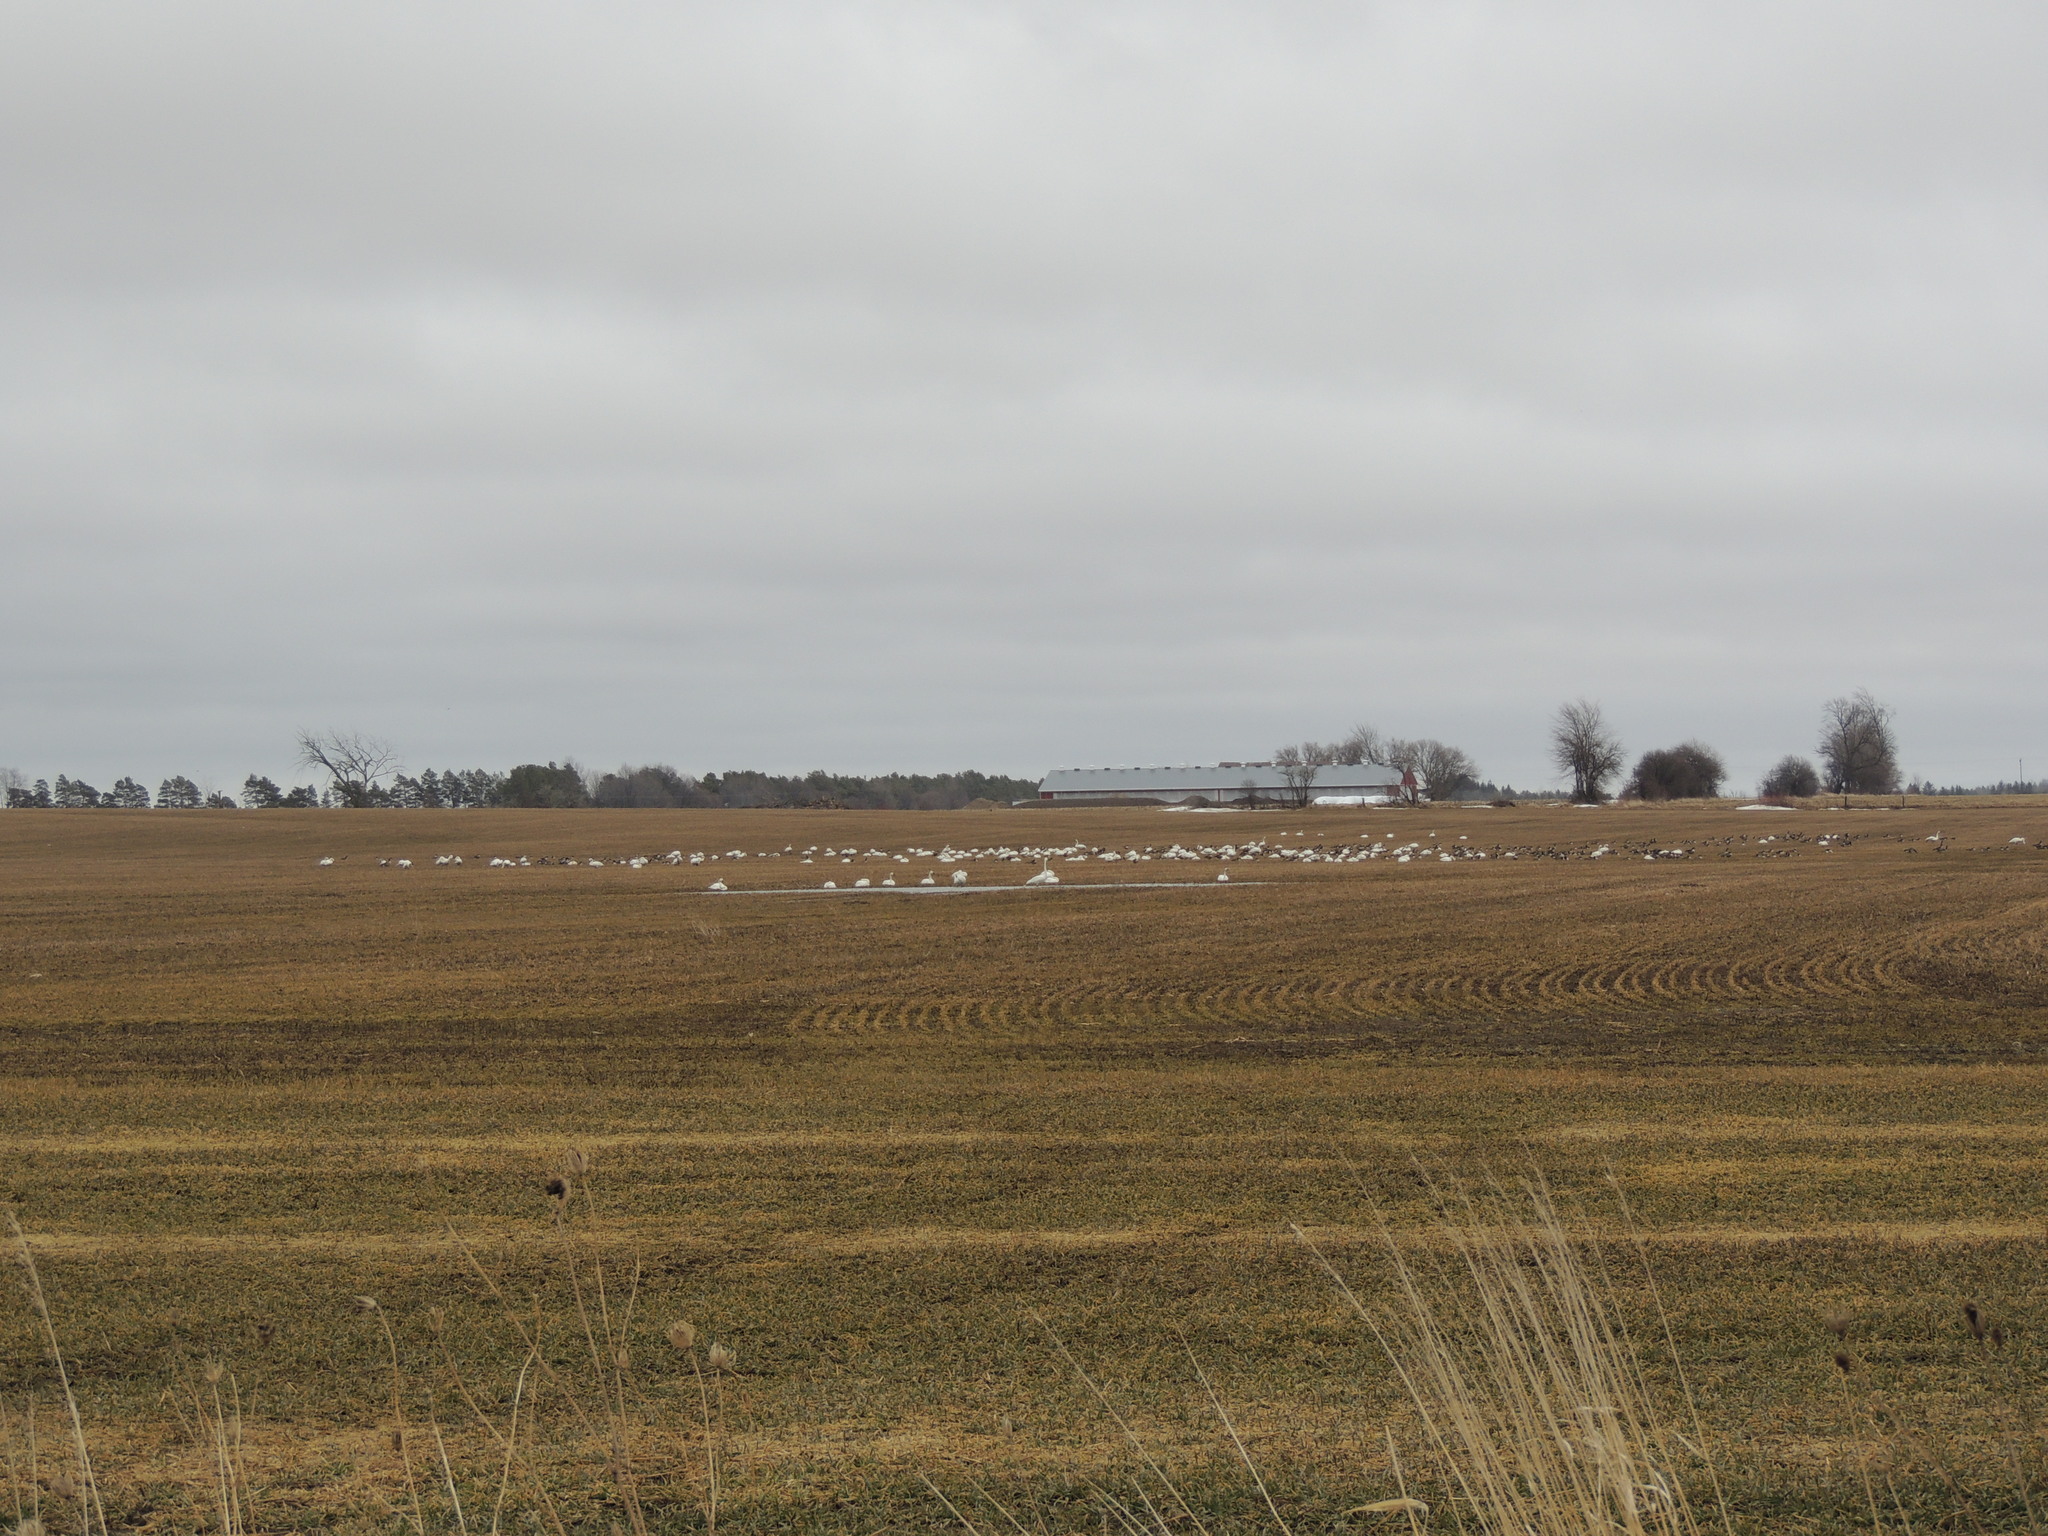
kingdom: Animalia
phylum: Chordata
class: Aves
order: Anseriformes
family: Anatidae
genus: Cygnus
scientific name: Cygnus columbianus
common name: Tundra swan
